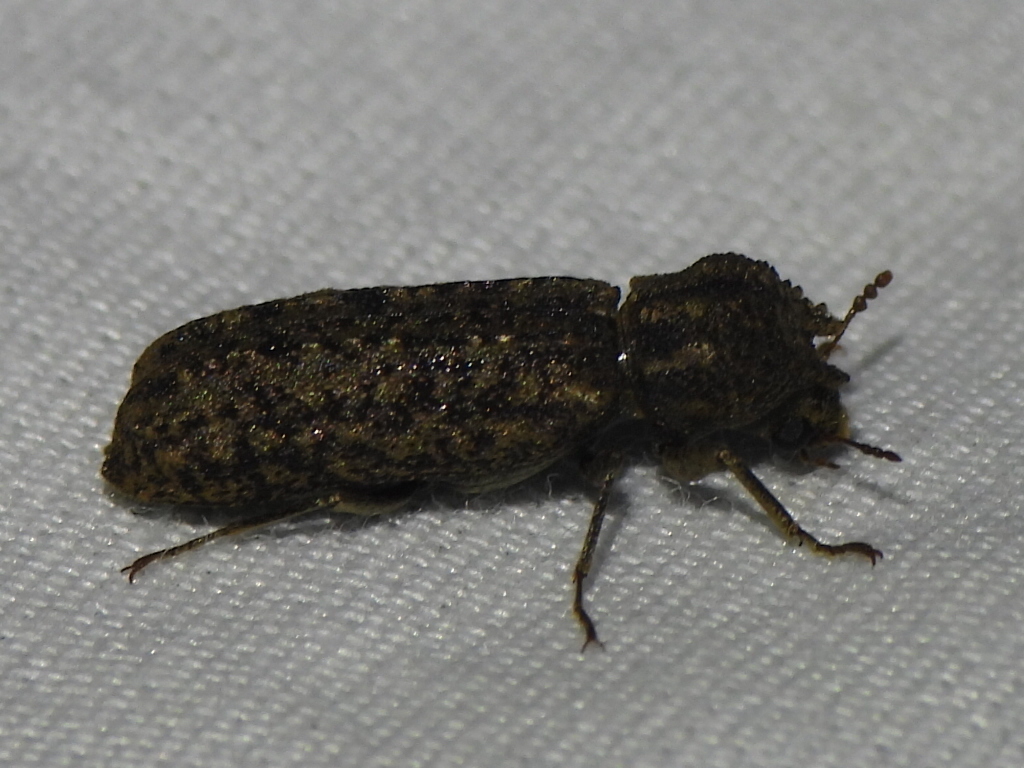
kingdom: Animalia
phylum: Arthropoda
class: Insecta
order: Coleoptera
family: Bostrichidae
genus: Lichenophanes
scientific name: Lichenophanes bicornis
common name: Two-horned powder-post beetle
